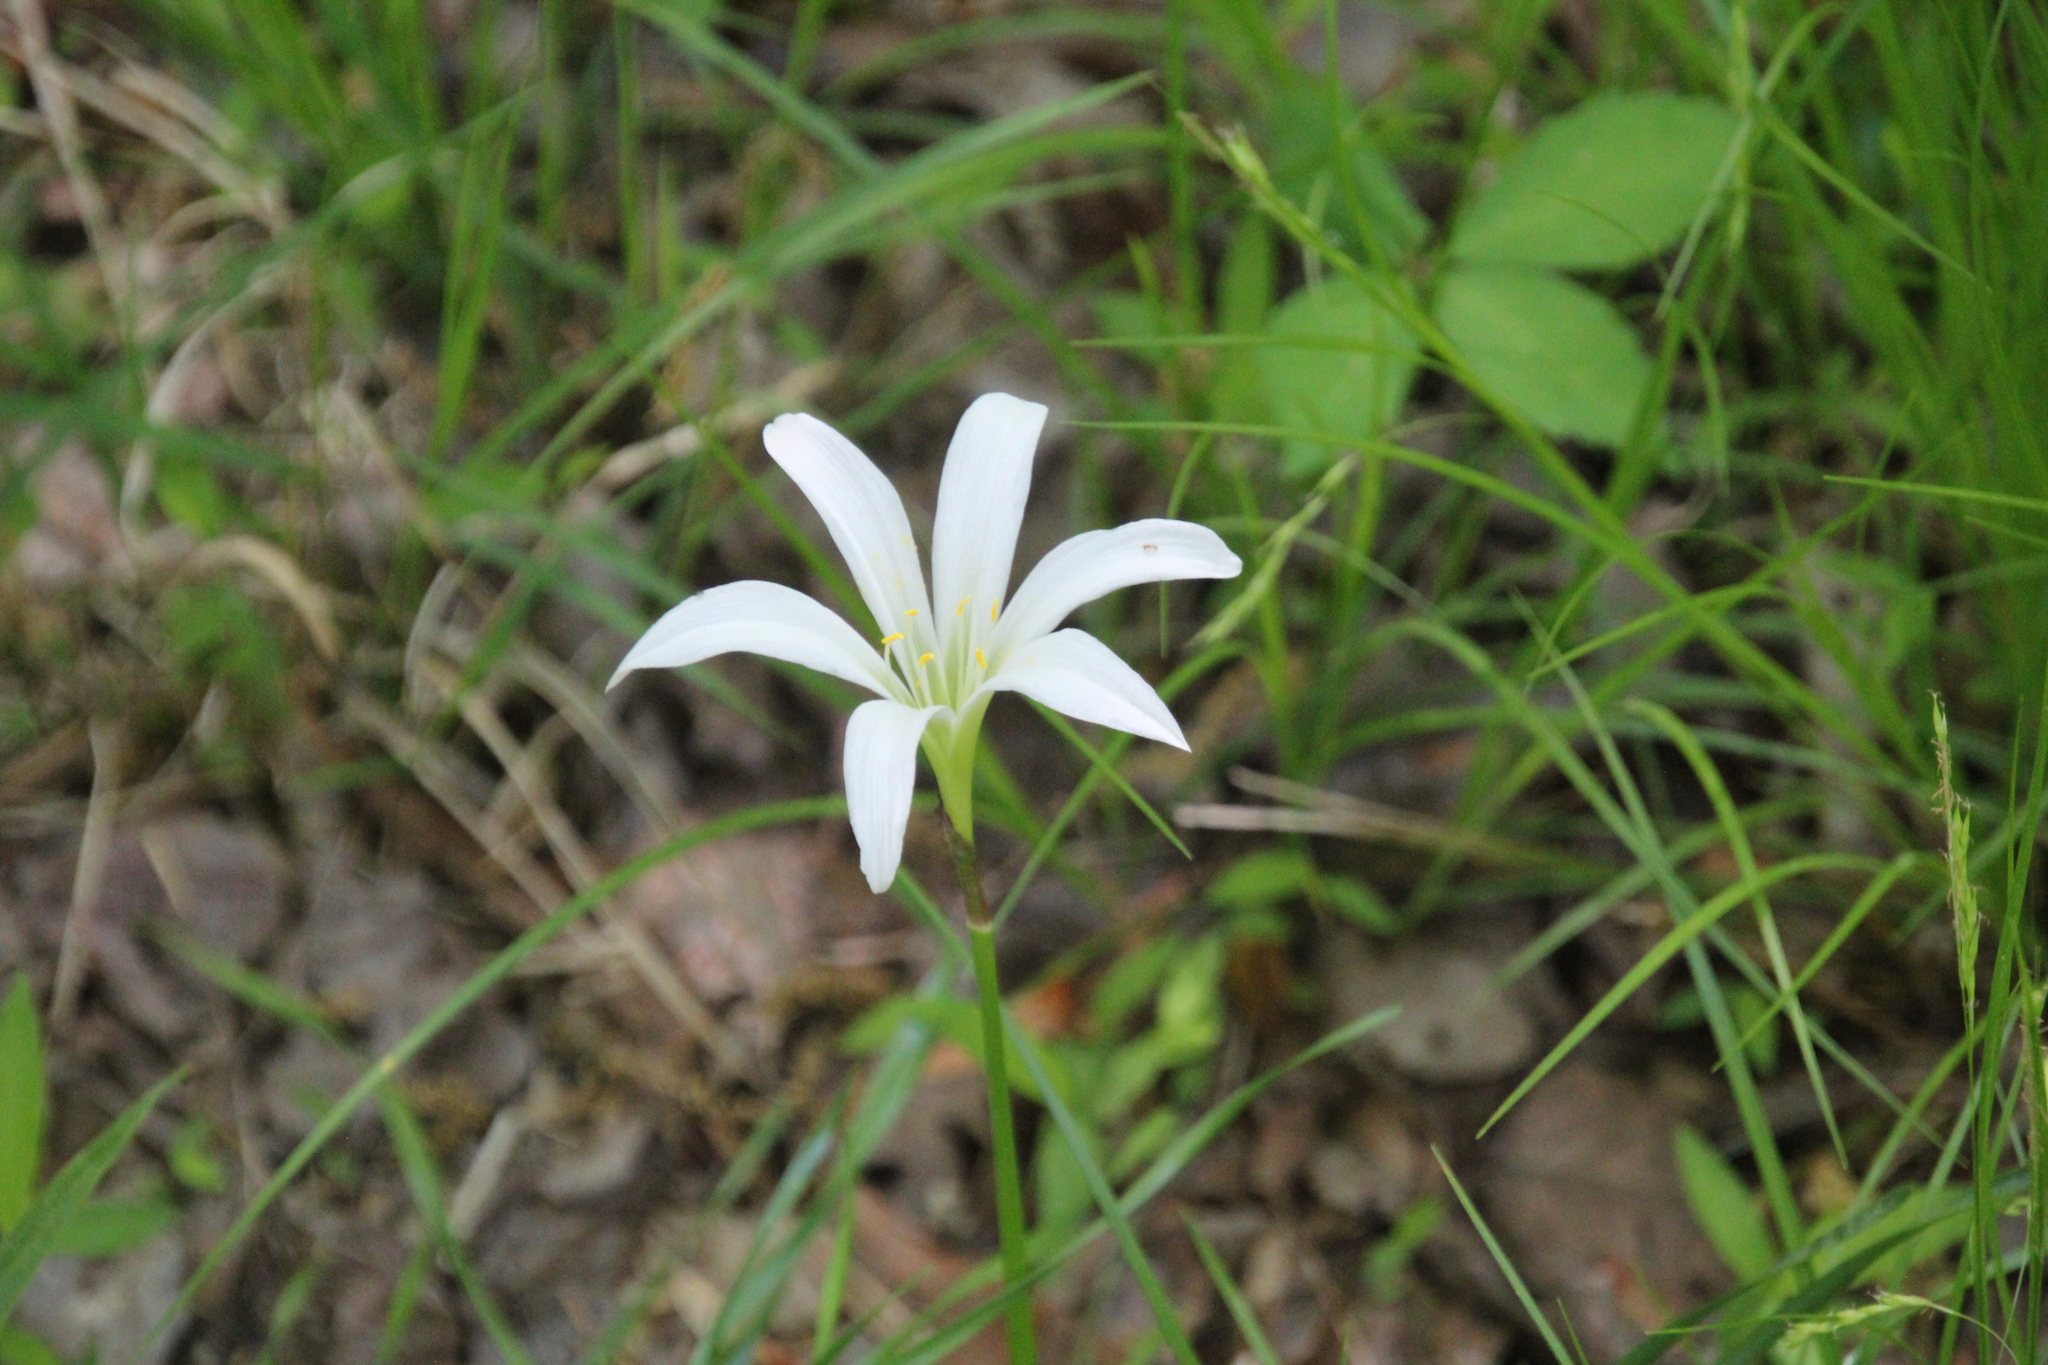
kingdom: Plantae
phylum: Tracheophyta
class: Liliopsida
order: Asparagales
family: Amaryllidaceae
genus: Zephyranthes
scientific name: Zephyranthes atamasco
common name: Atamasco lily
